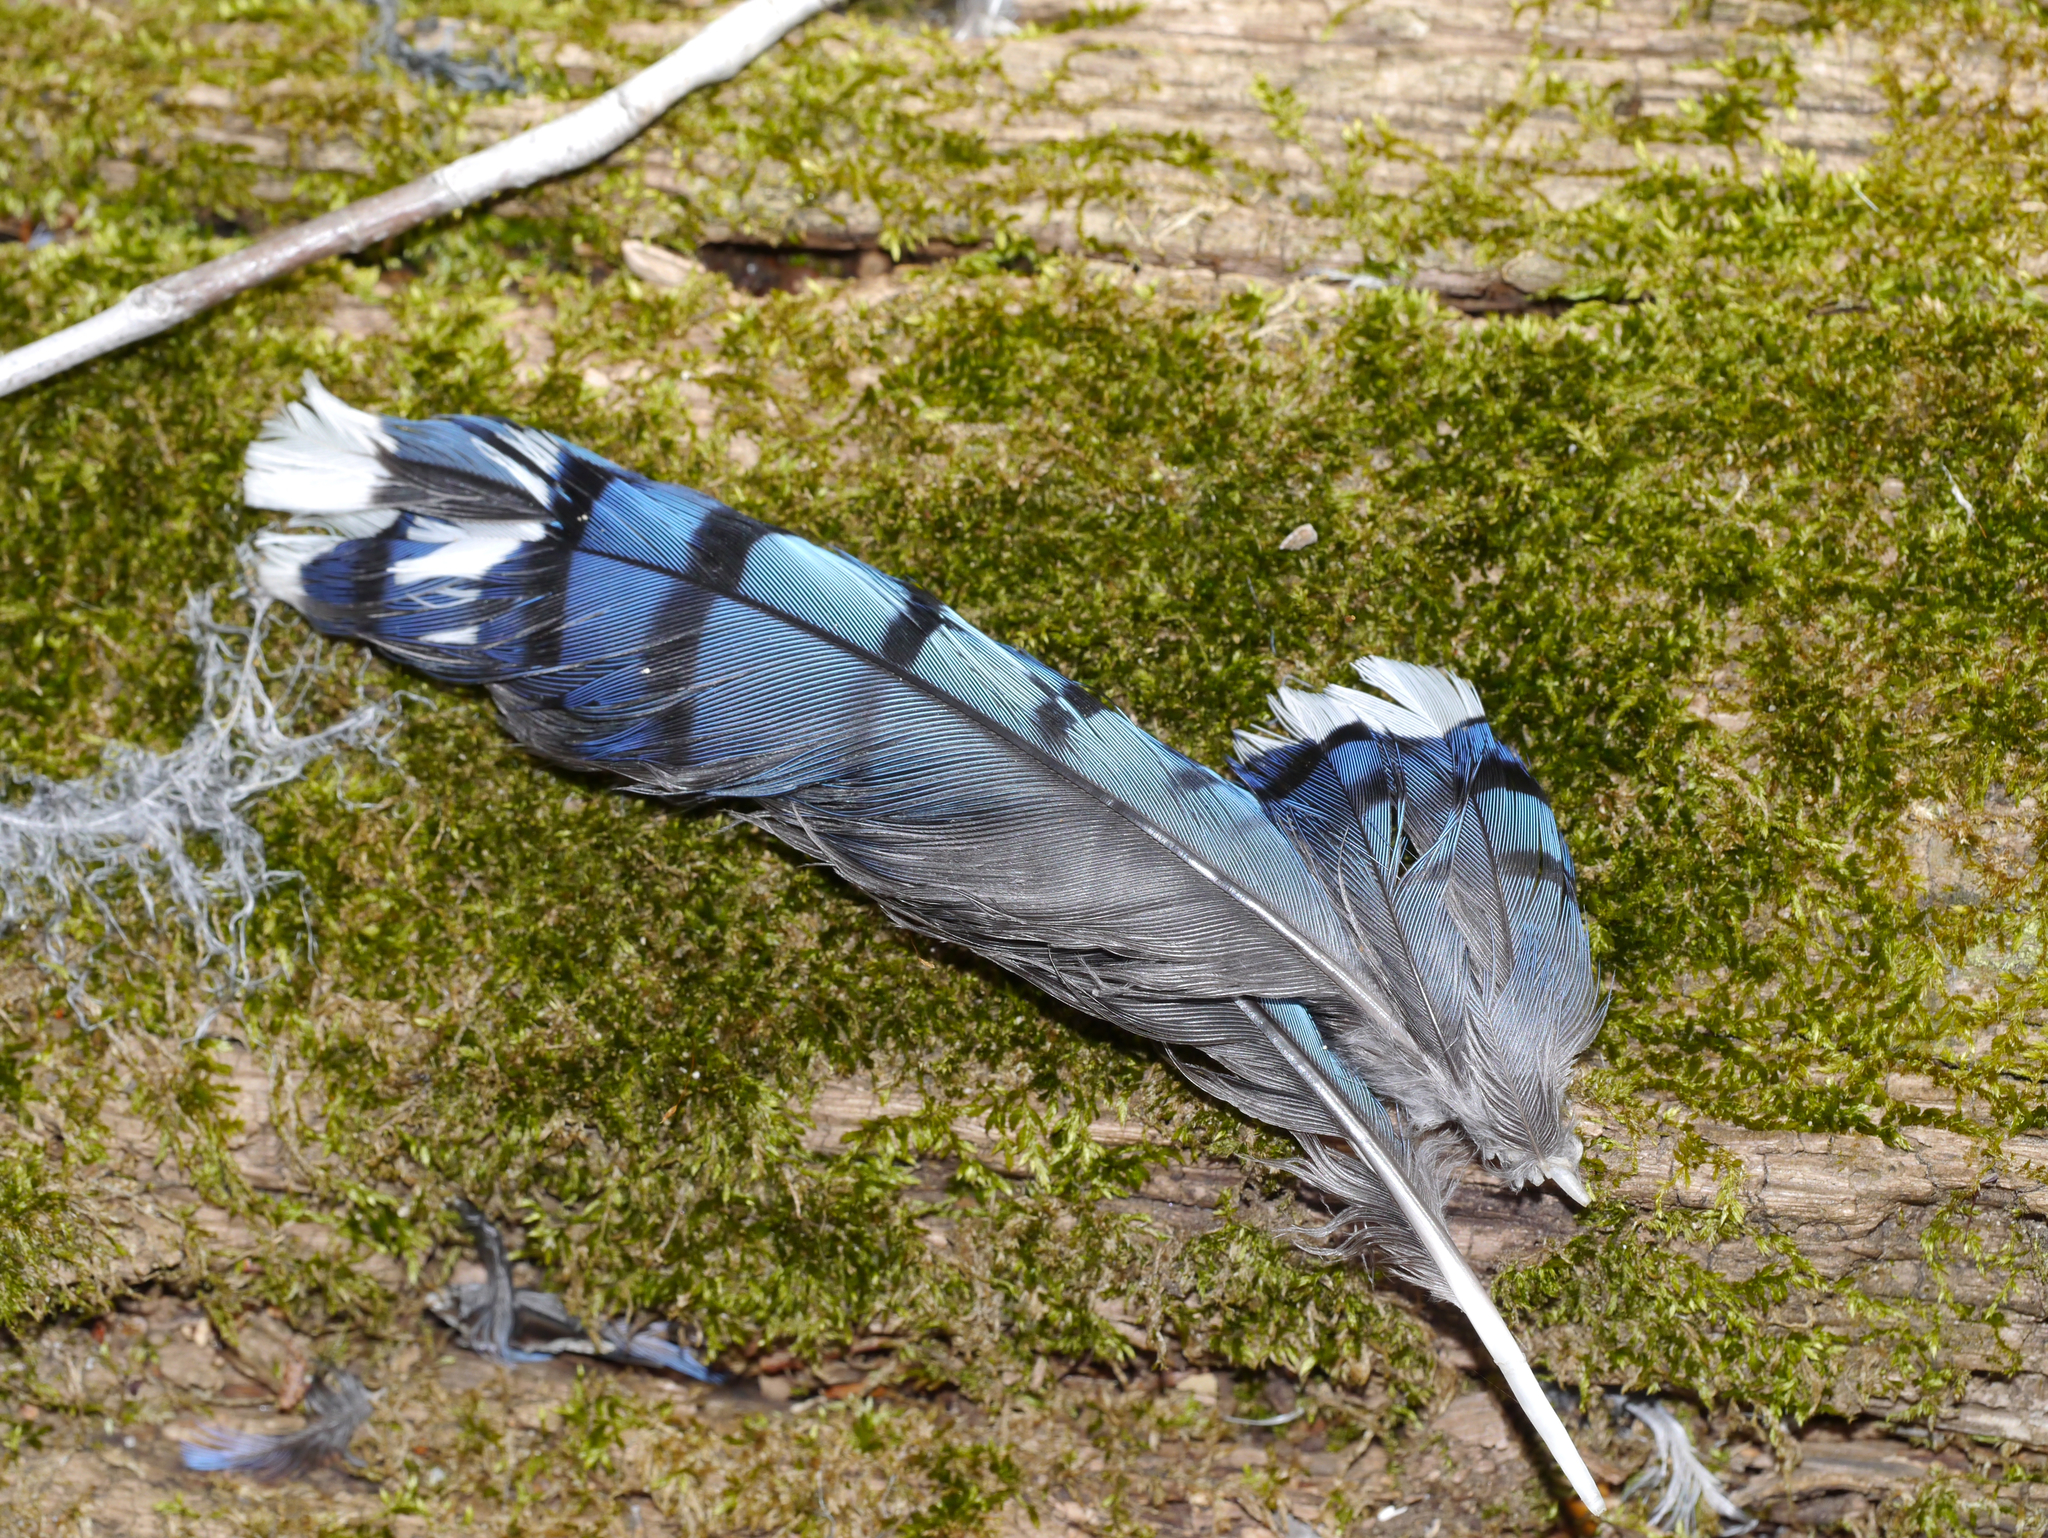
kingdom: Animalia
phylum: Chordata
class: Aves
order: Passeriformes
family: Corvidae
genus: Cyanocitta
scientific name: Cyanocitta cristata
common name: Blue jay
